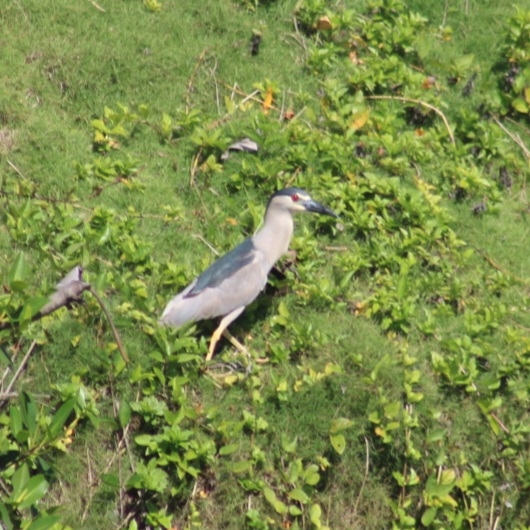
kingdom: Animalia
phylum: Chordata
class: Aves
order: Pelecaniformes
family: Ardeidae
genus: Nycticorax
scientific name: Nycticorax nycticorax
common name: Black-crowned night heron
